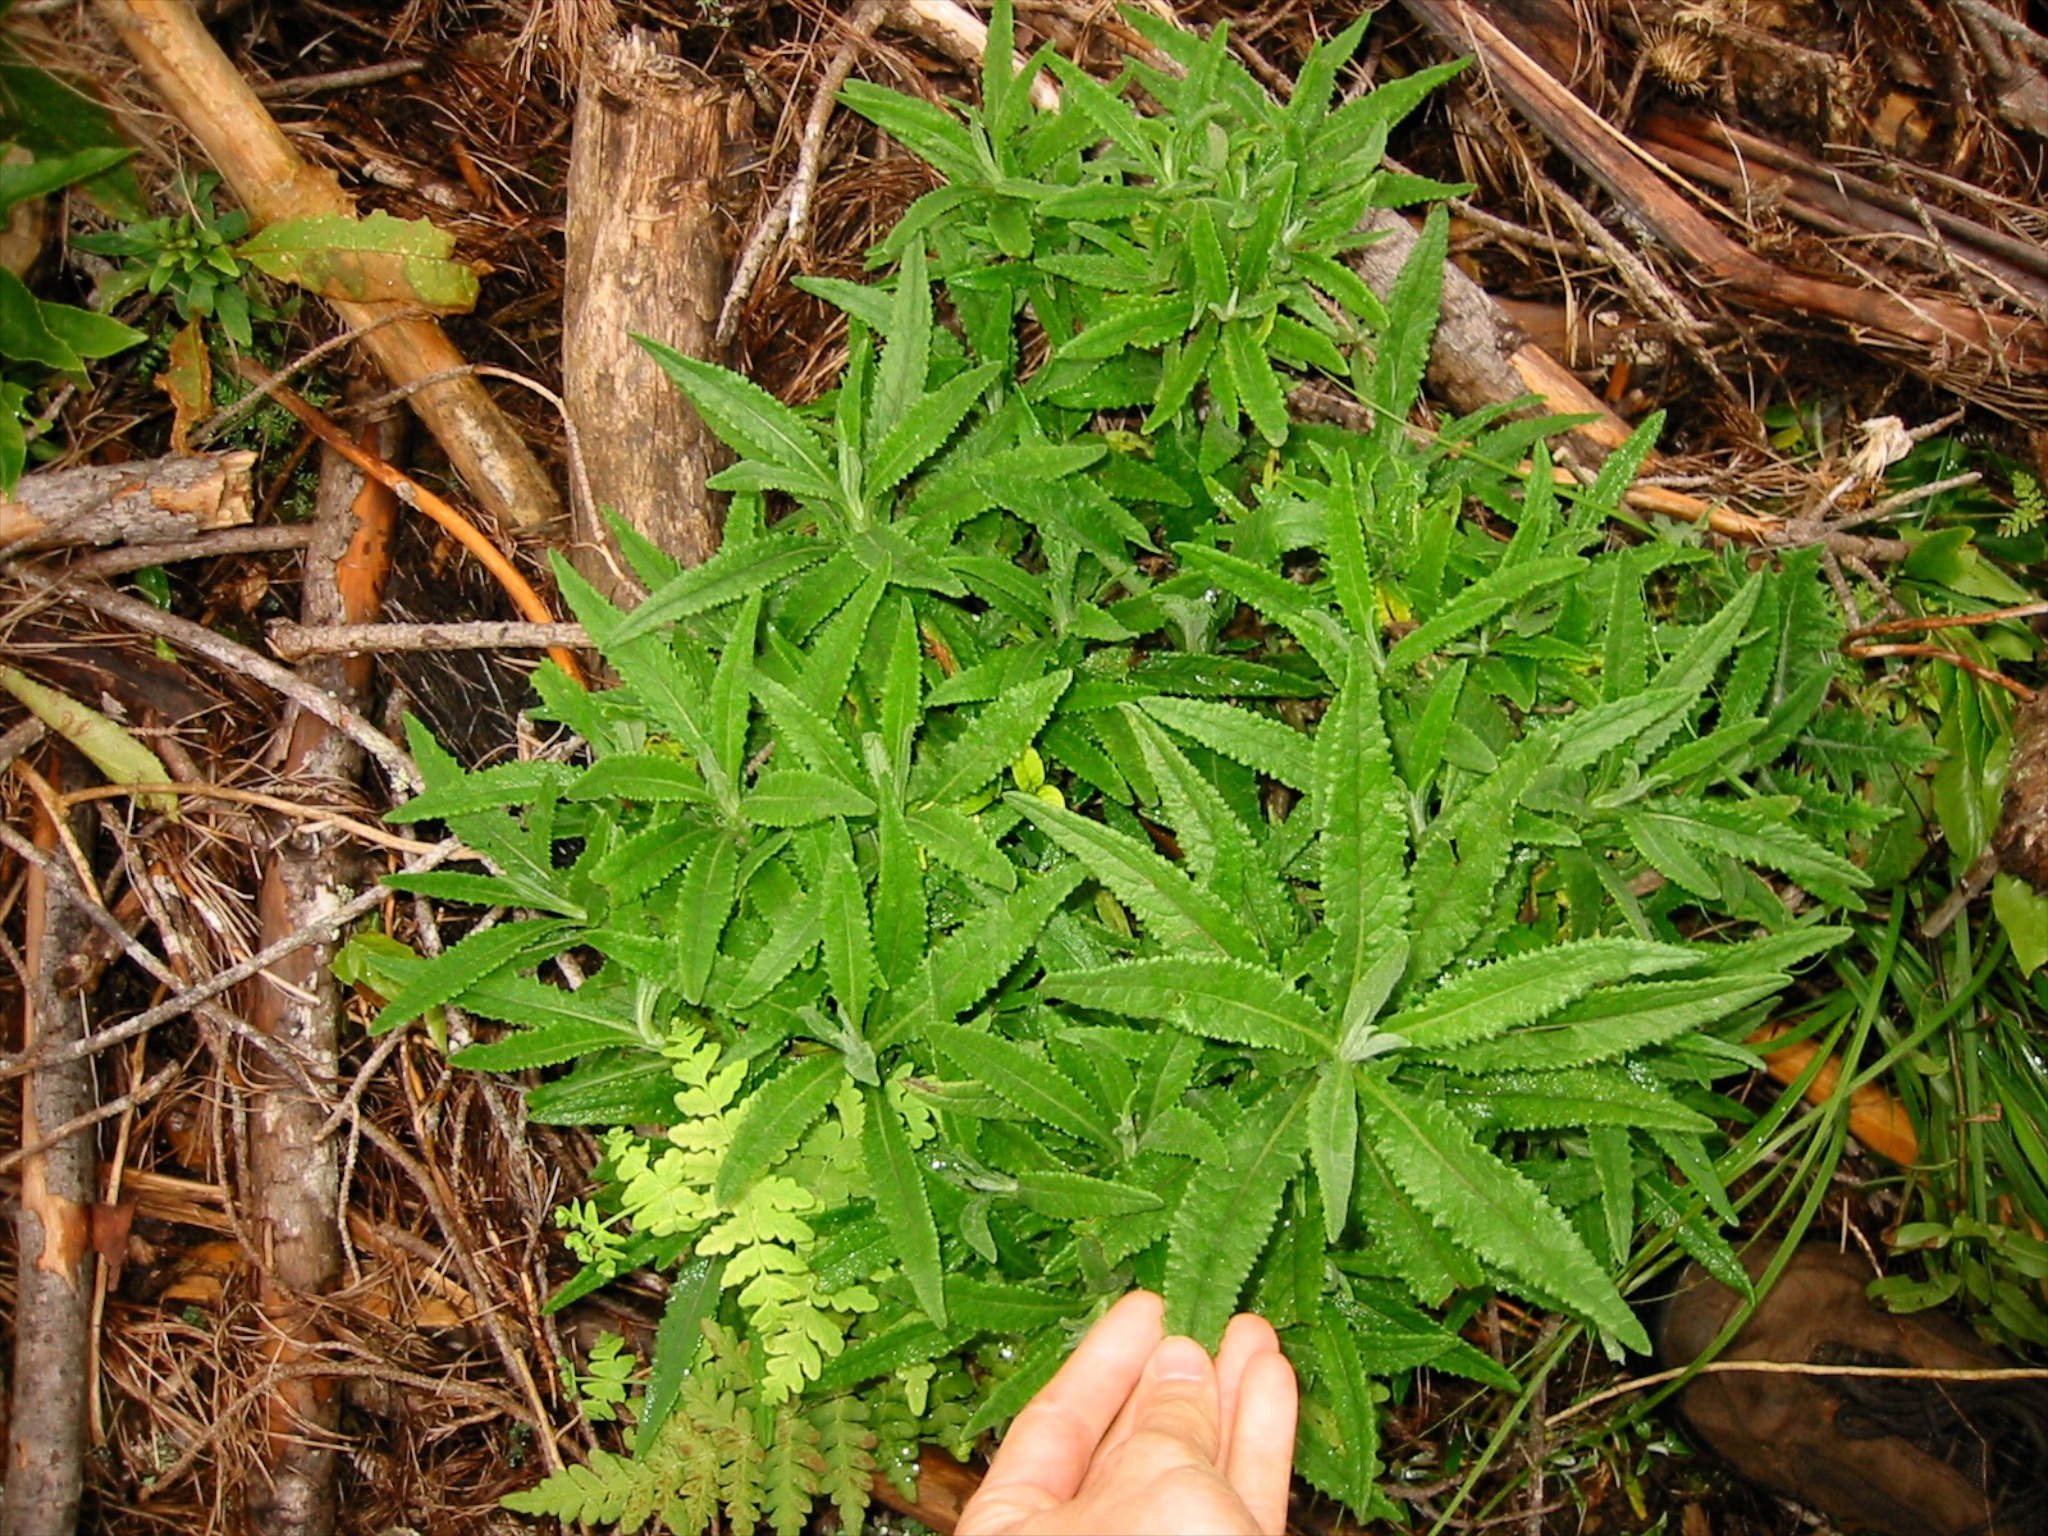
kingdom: Plantae
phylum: Tracheophyta
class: Magnoliopsida
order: Asterales
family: Asteraceae
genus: Senecio
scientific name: Senecio minimus
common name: Toothed fireweed
